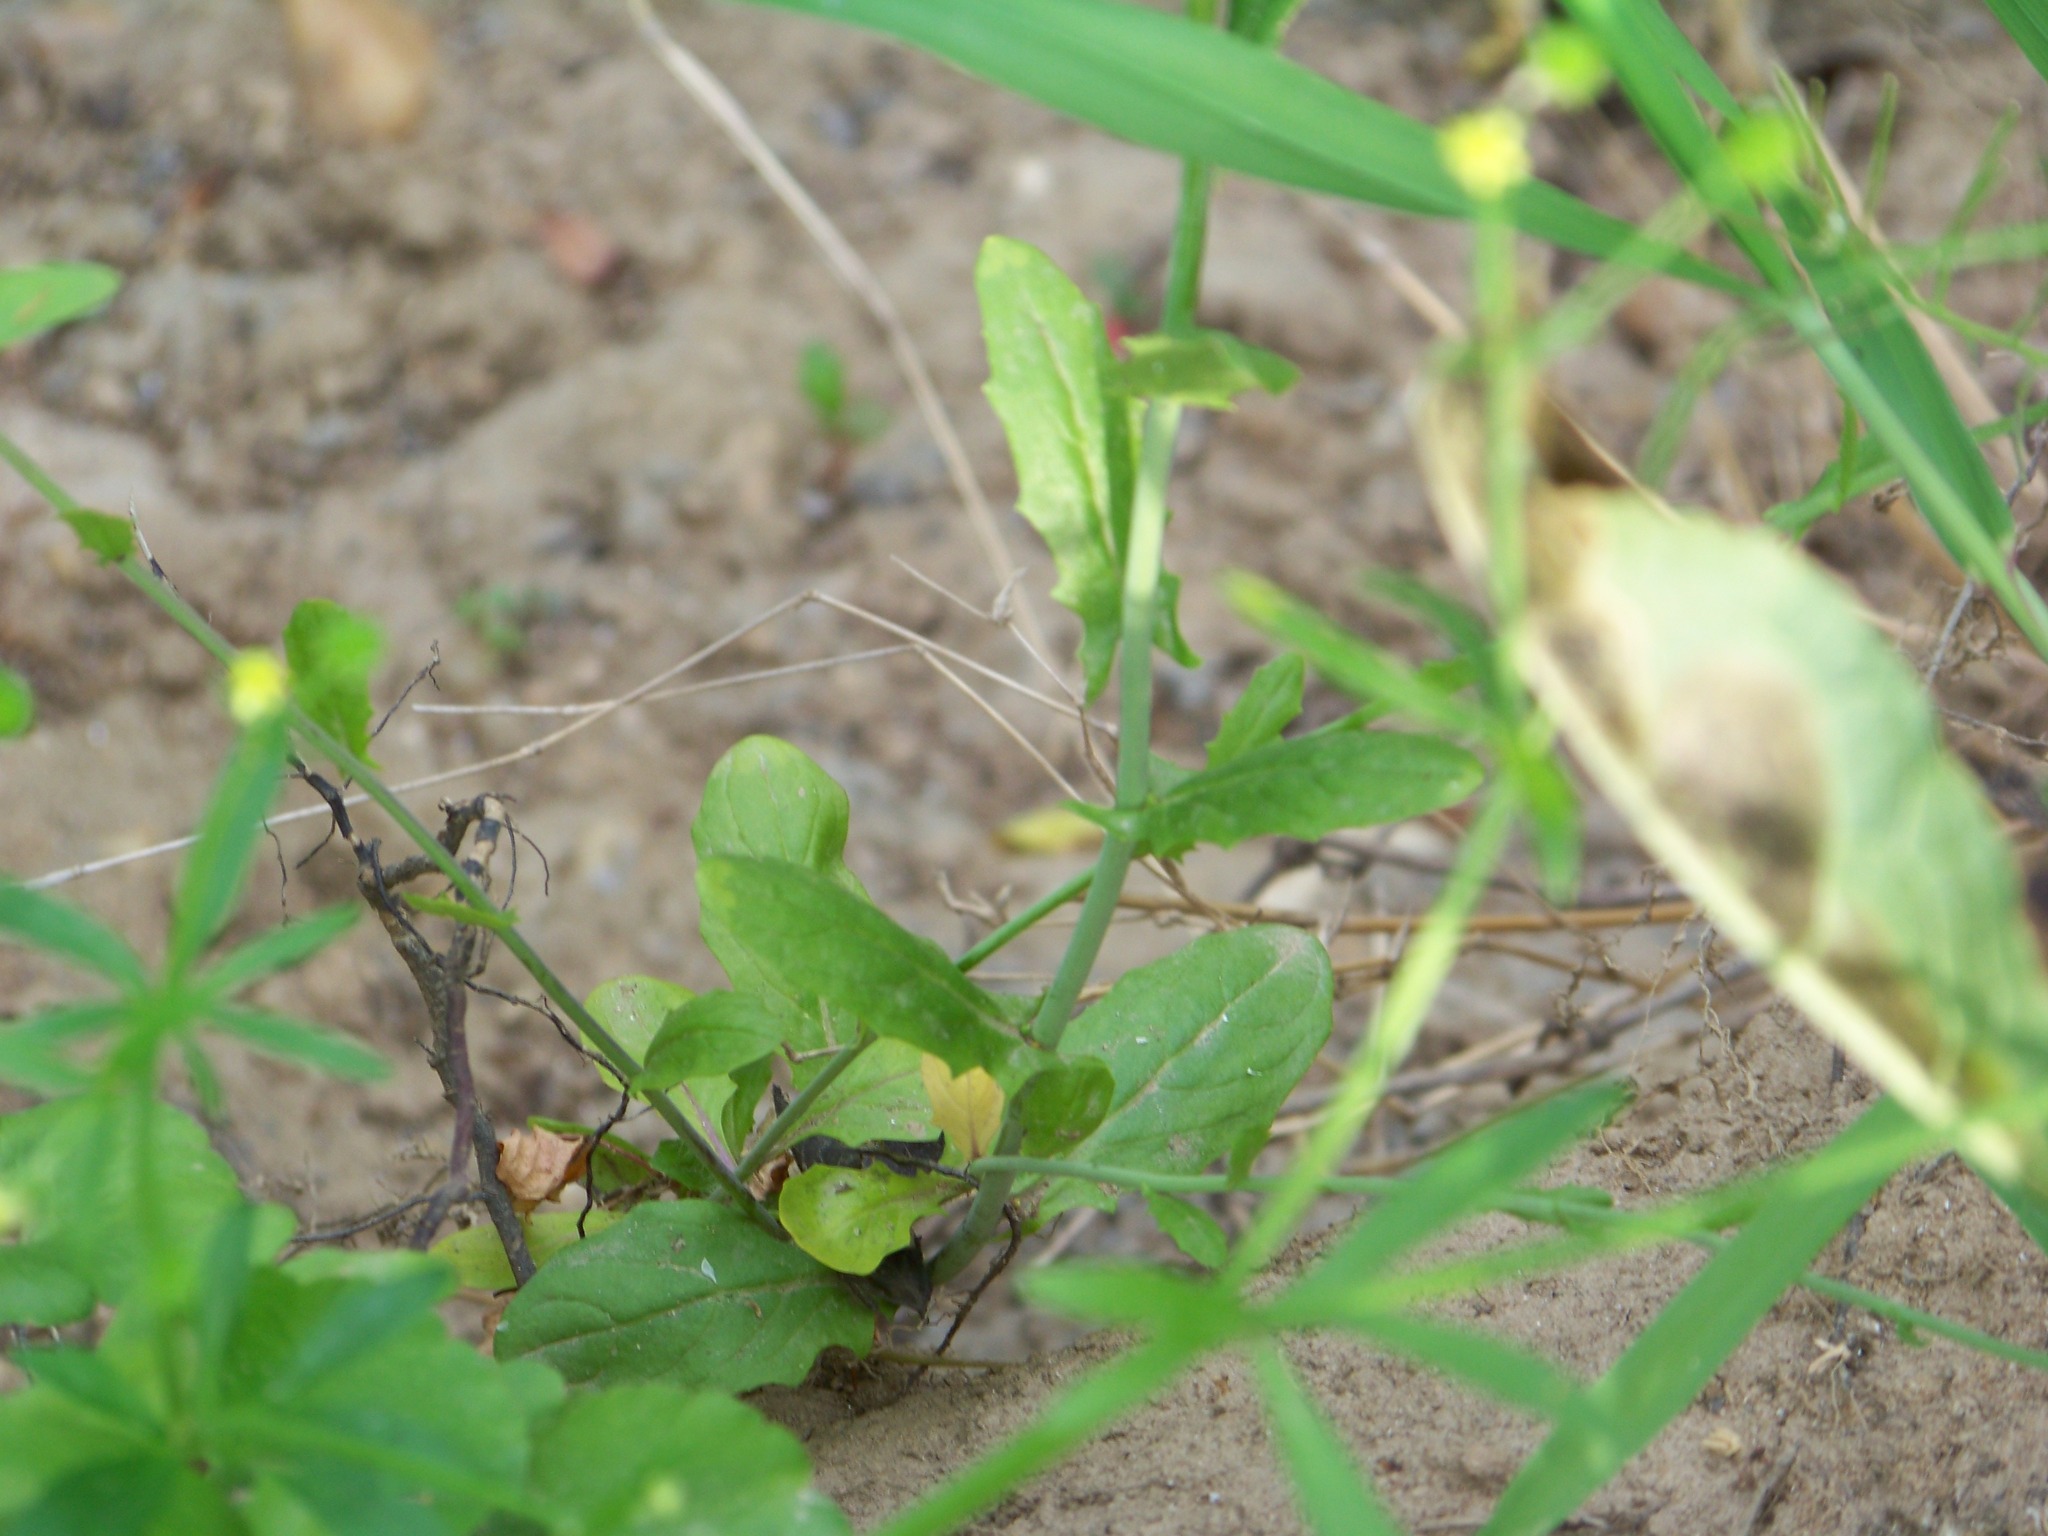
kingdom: Plantae
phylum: Tracheophyta
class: Magnoliopsida
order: Brassicales
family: Brassicaceae
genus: Mummenhoffia
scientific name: Mummenhoffia alliacea
